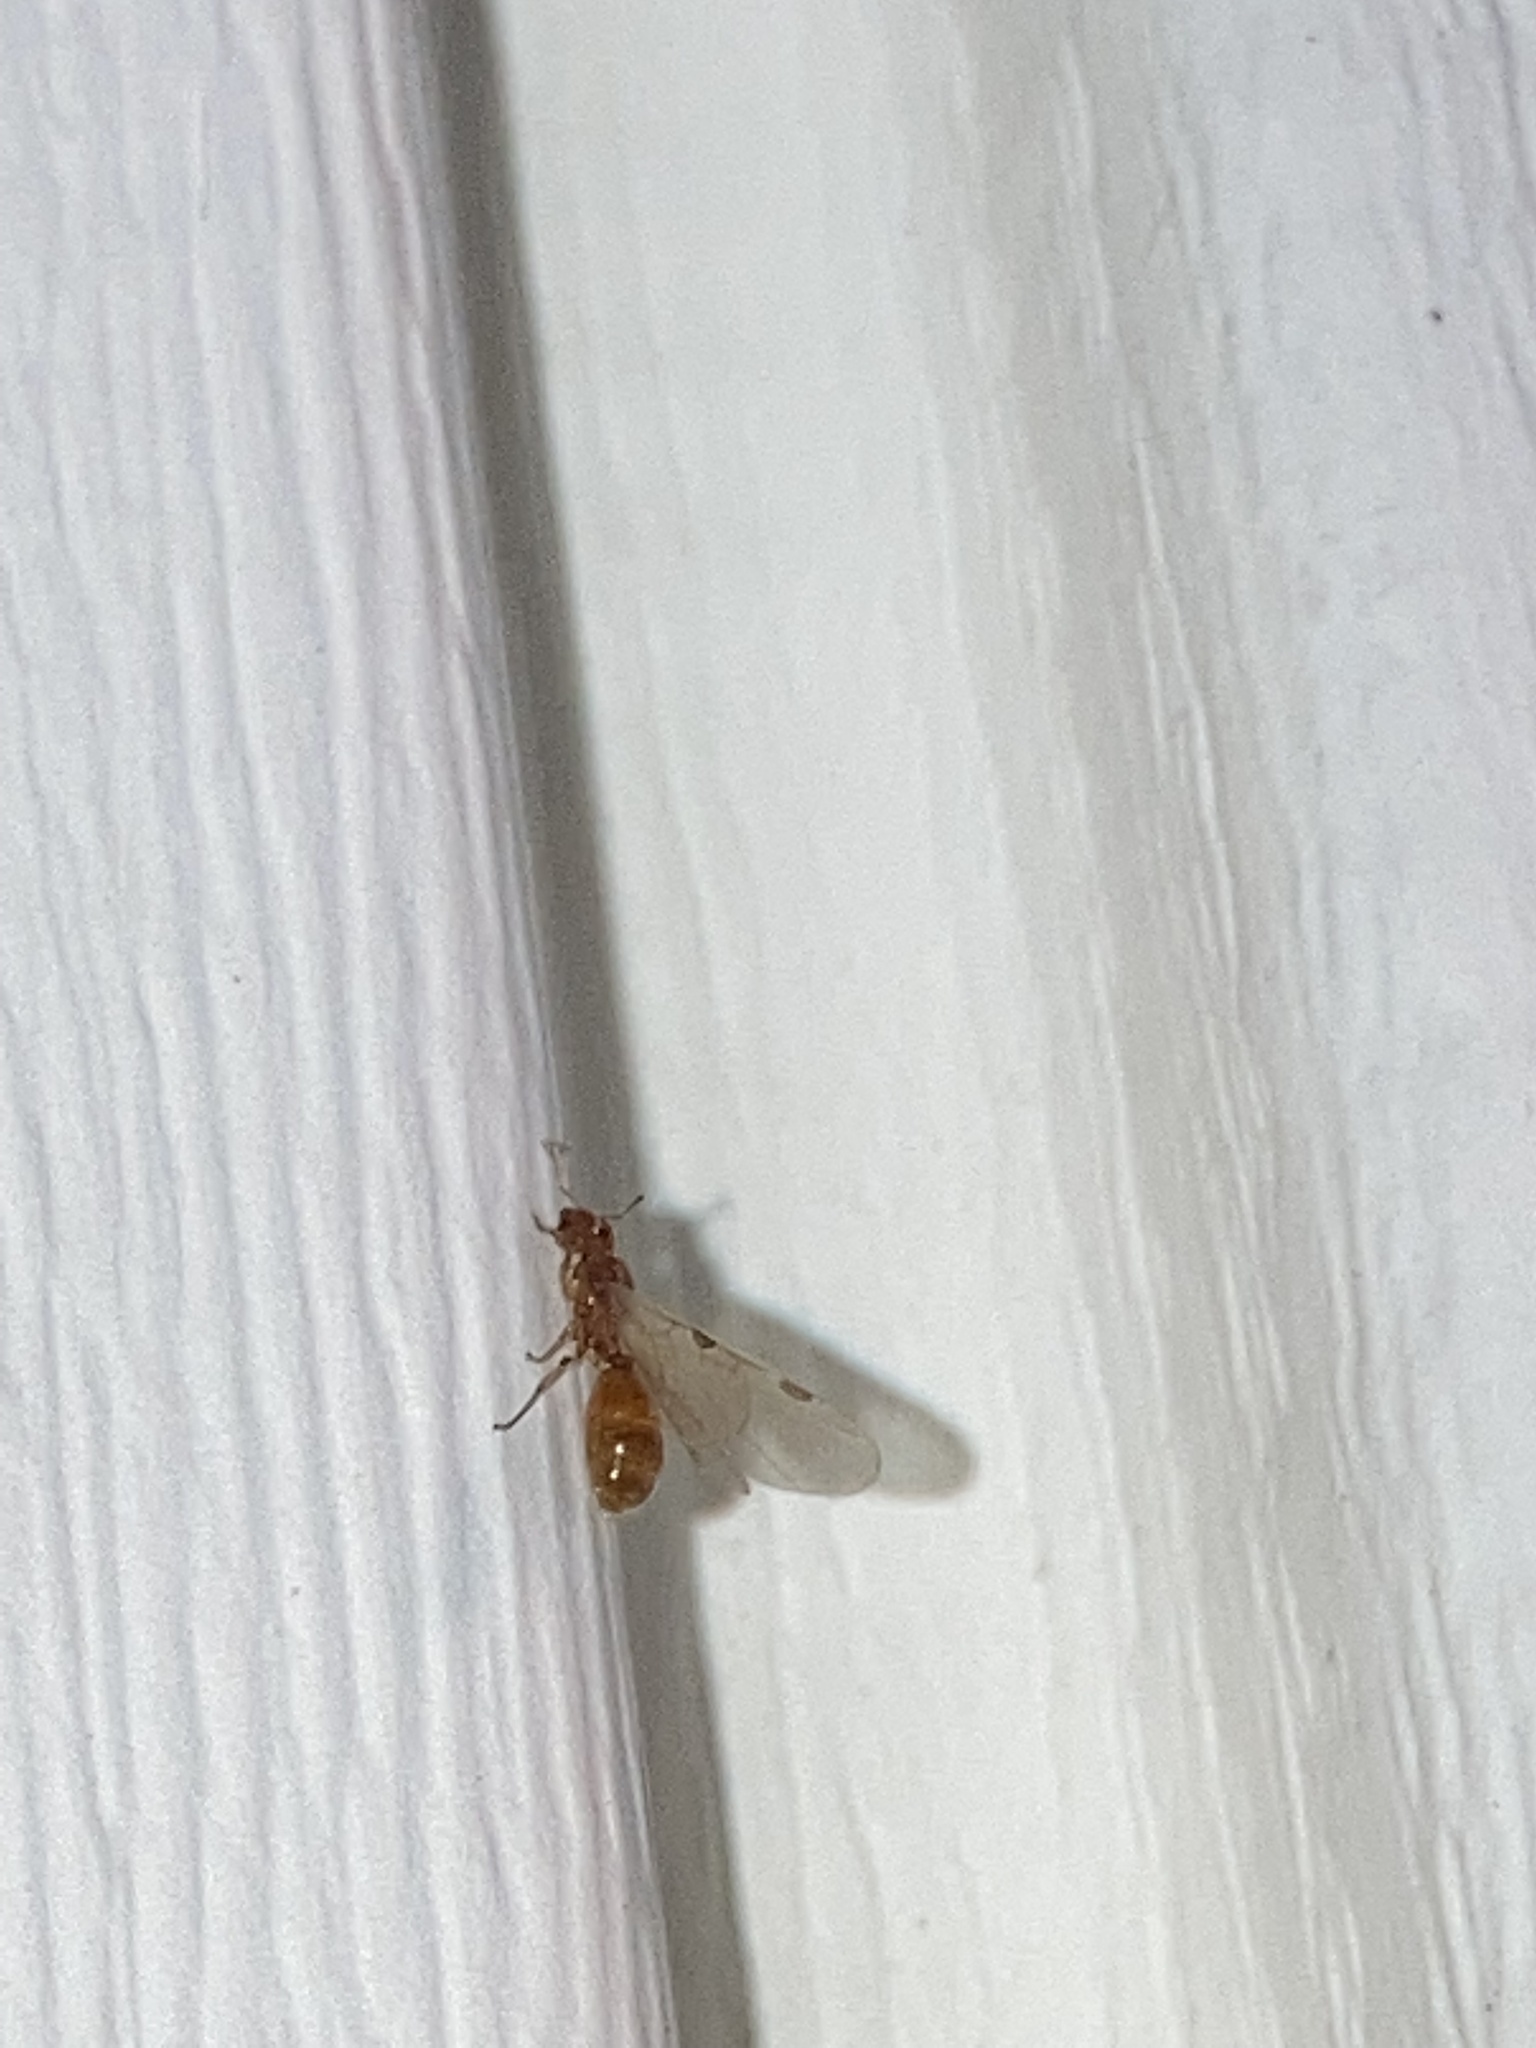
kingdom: Animalia
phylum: Arthropoda
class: Insecta
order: Hymenoptera
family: Formicidae
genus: Pheidole
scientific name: Pheidole tysoni
